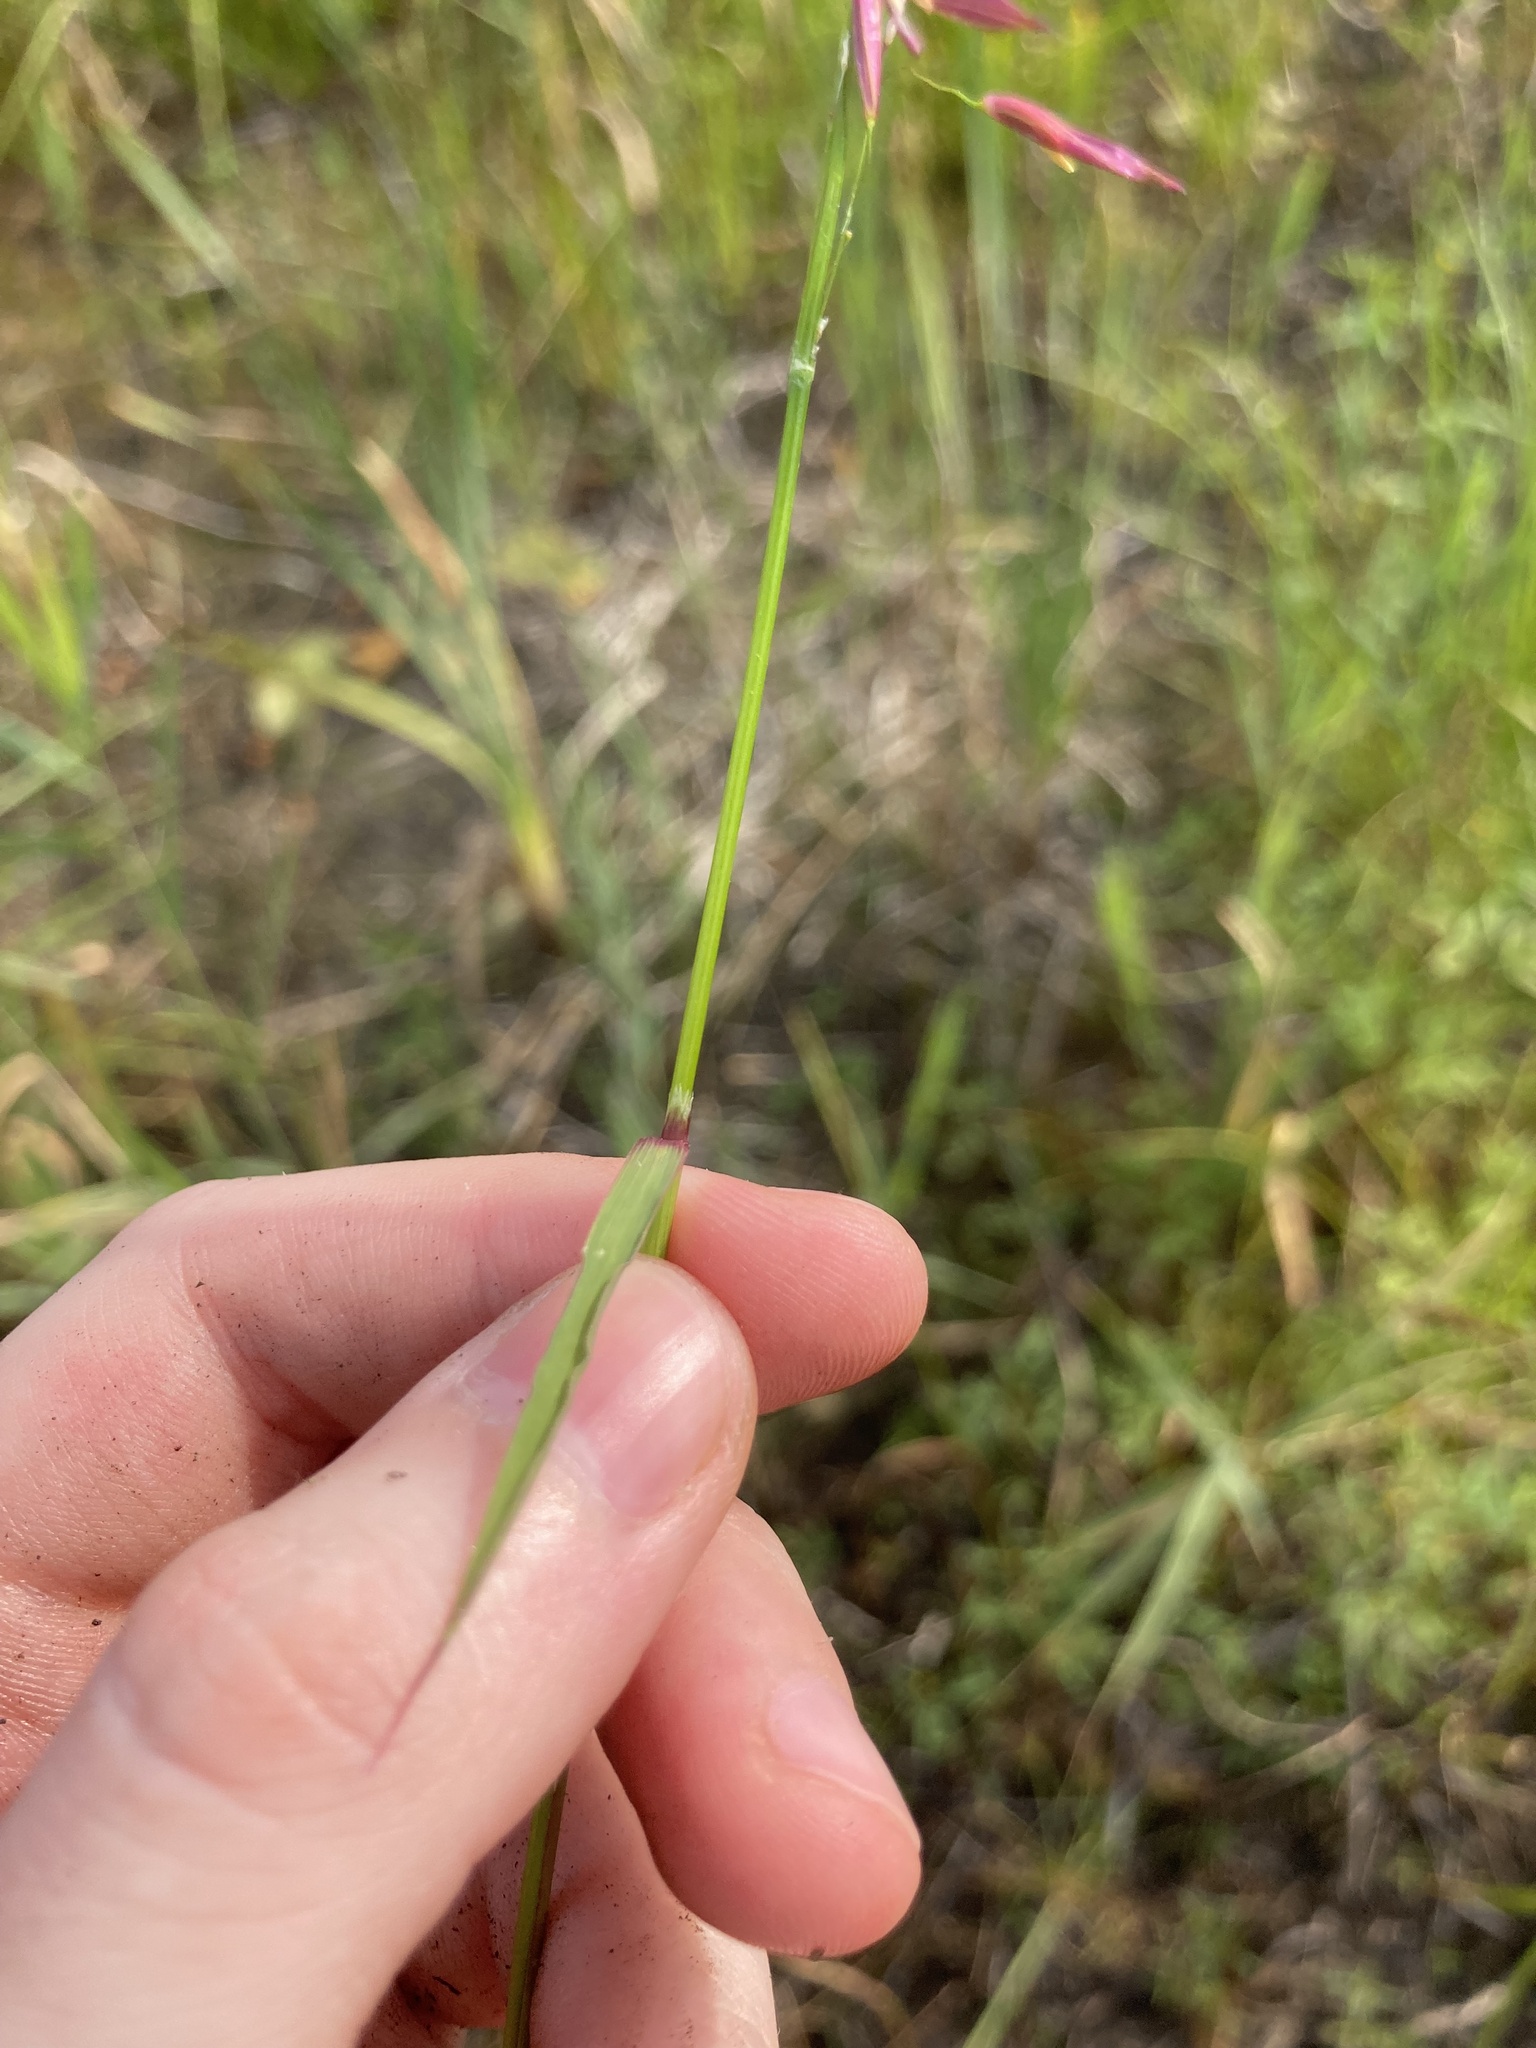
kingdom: Plantae
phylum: Tracheophyta
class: Liliopsida
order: Poales
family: Poaceae
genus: Zizania
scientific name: Zizania aquatica
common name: Annual wildrice
